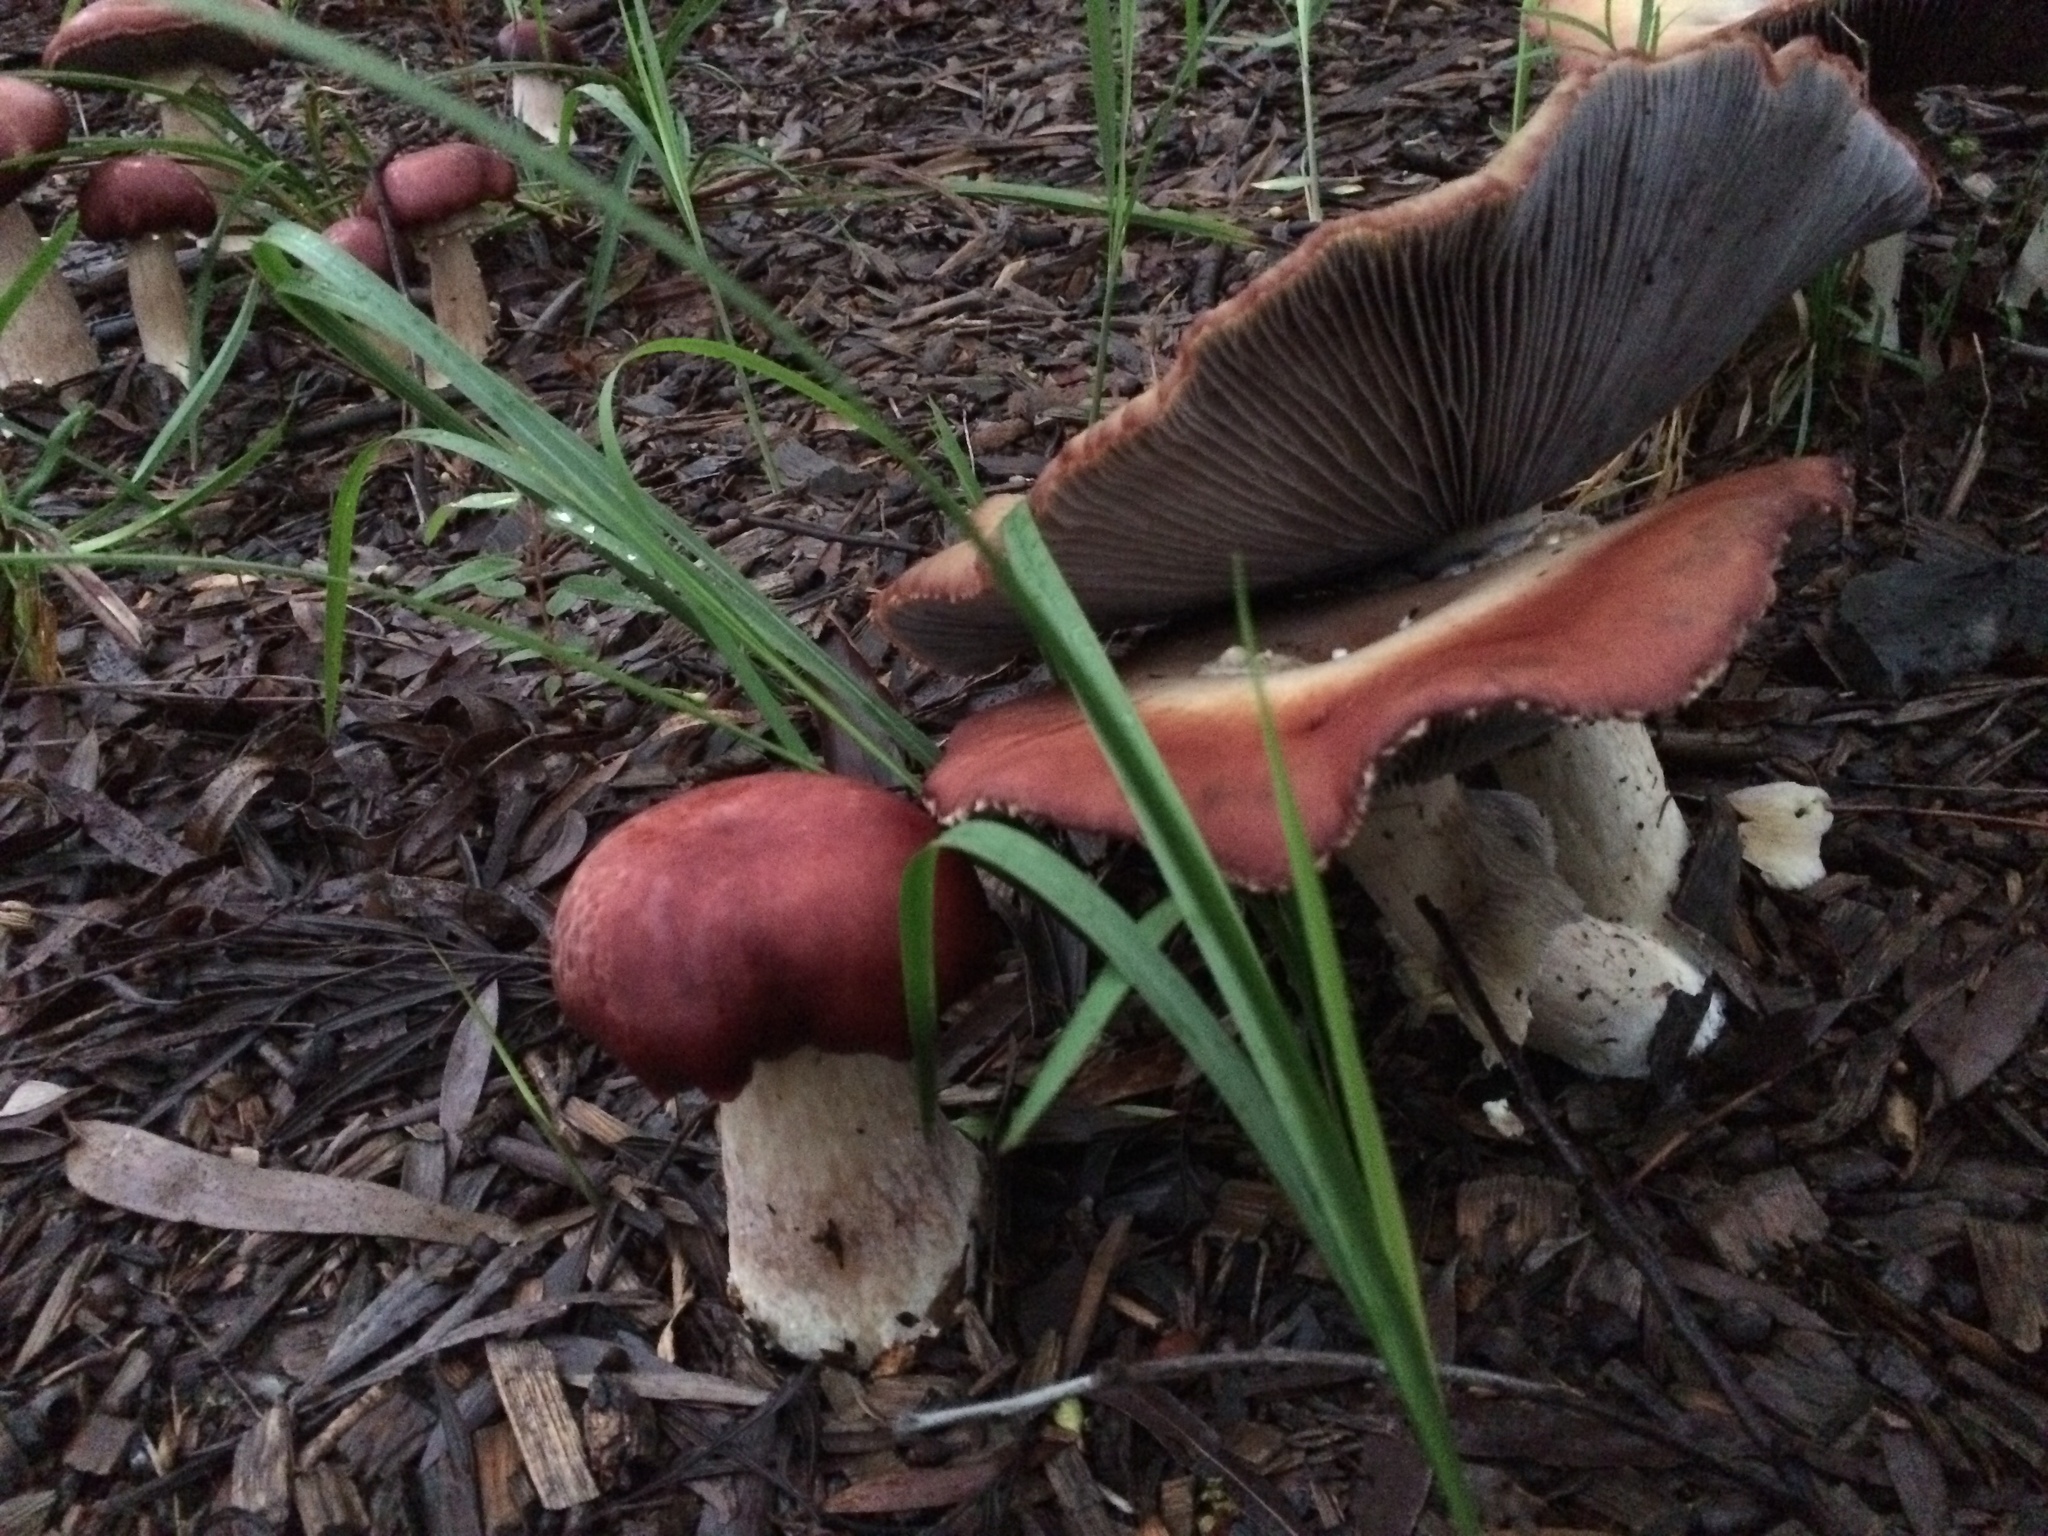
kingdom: Fungi
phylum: Basidiomycota
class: Agaricomycetes
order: Agaricales
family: Strophariaceae
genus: Stropharia
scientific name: Stropharia rugosoannulata
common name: Wine roundhead
